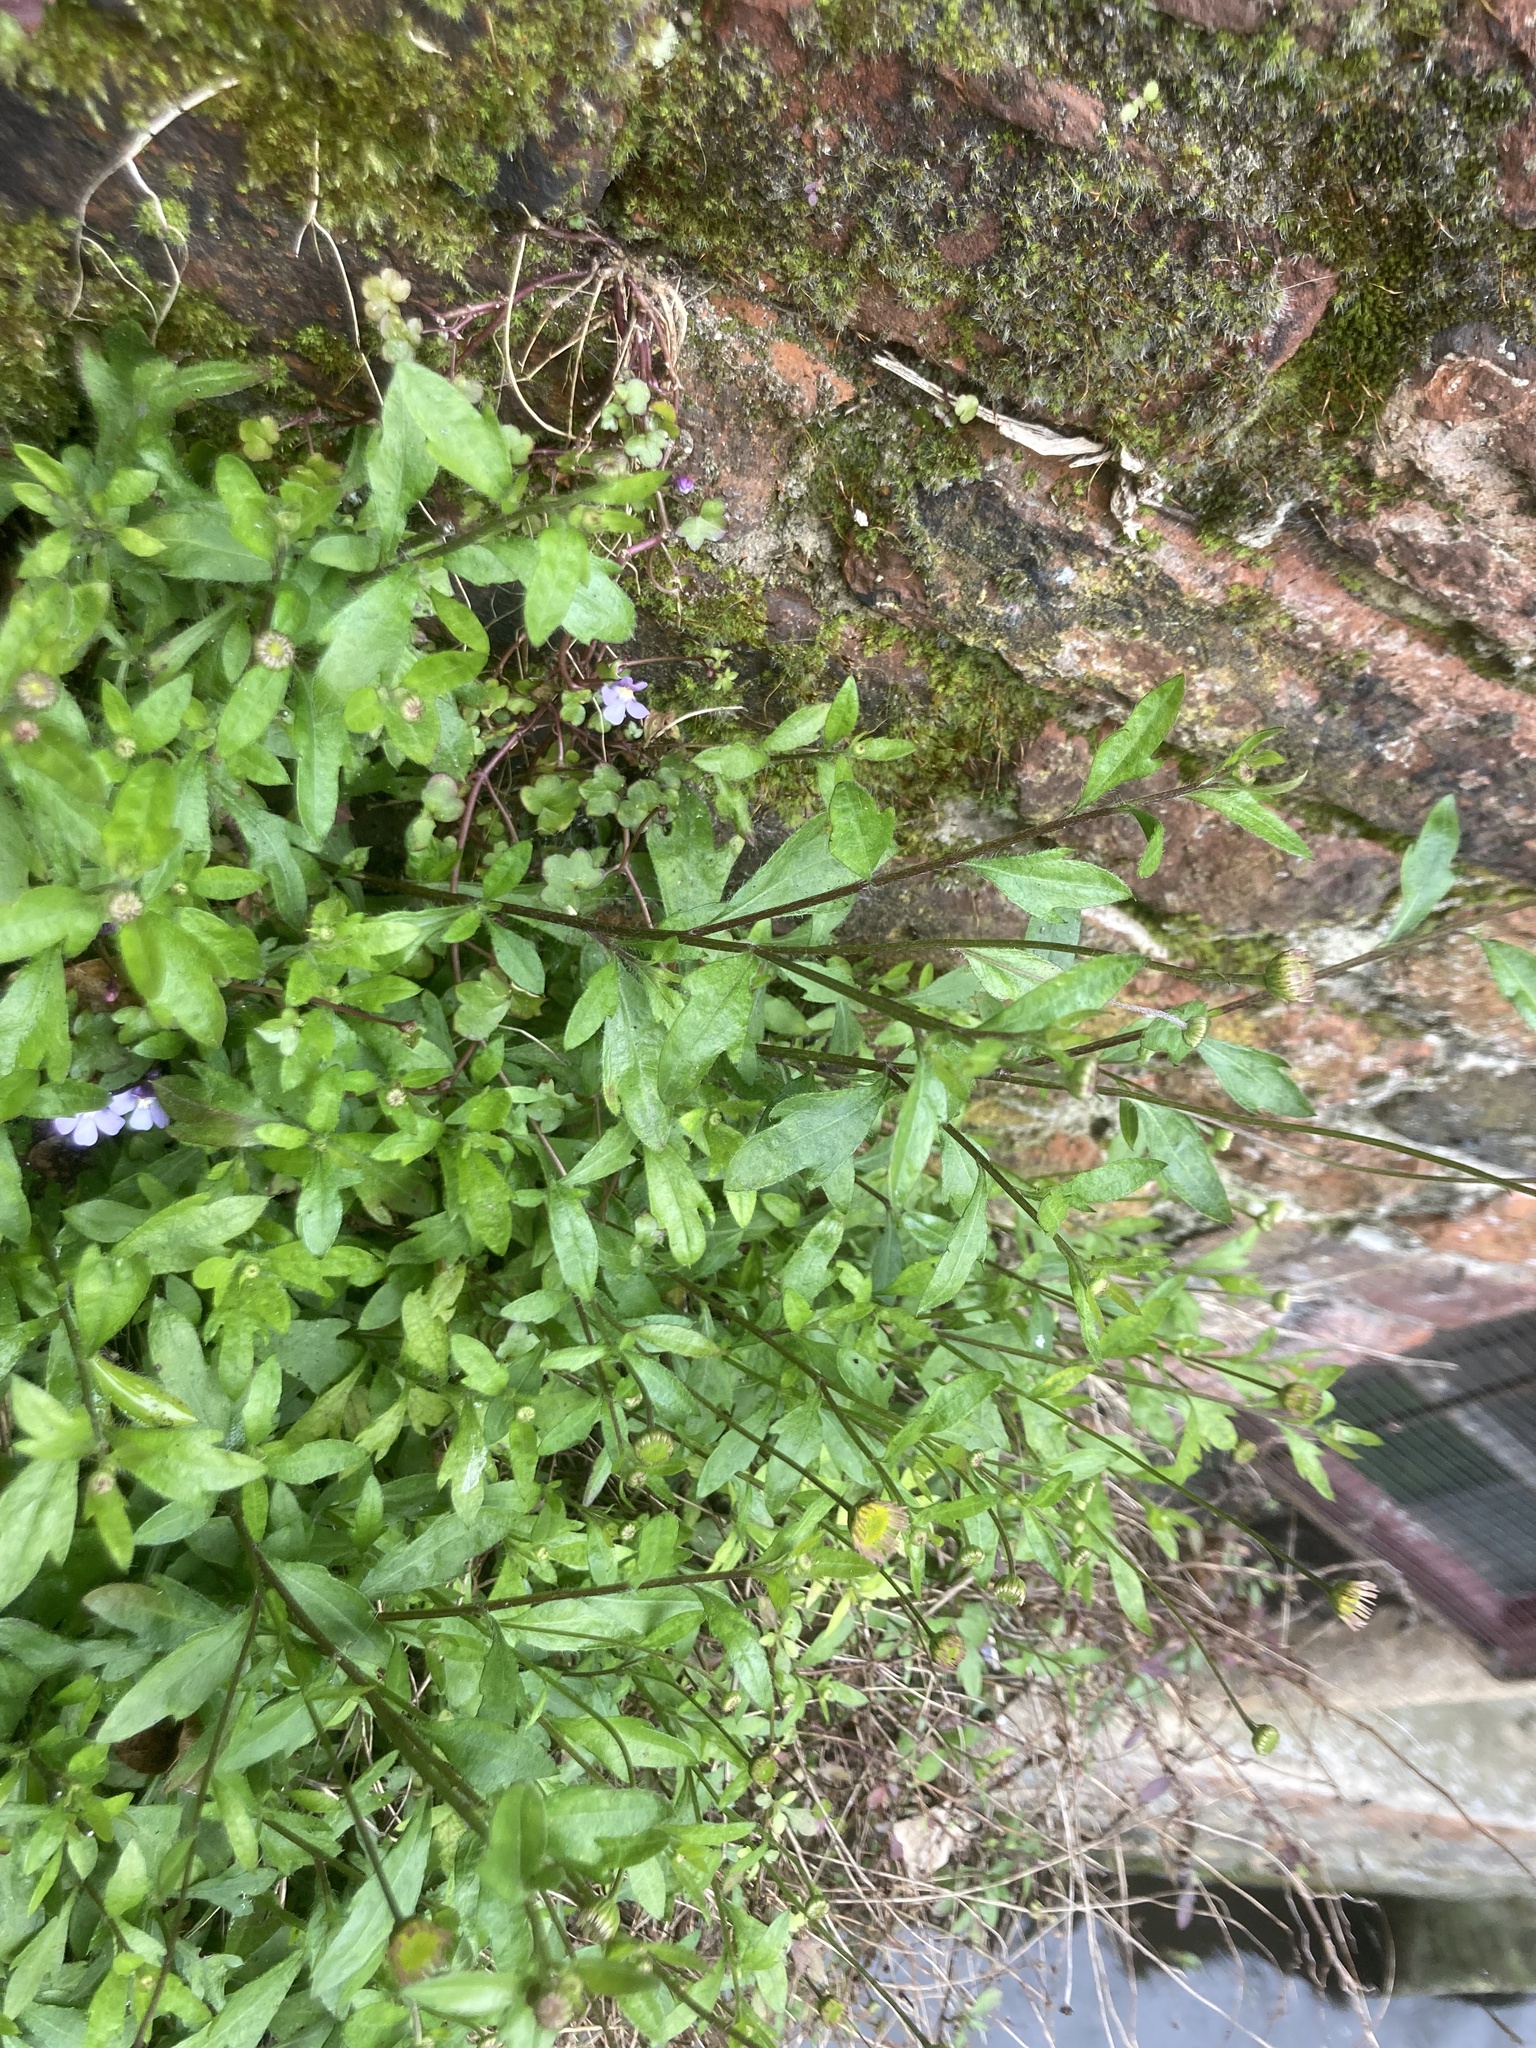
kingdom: Plantae
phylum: Tracheophyta
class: Magnoliopsida
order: Asterales
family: Asteraceae
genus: Erigeron
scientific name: Erigeron karvinskianus
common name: Mexican fleabane
